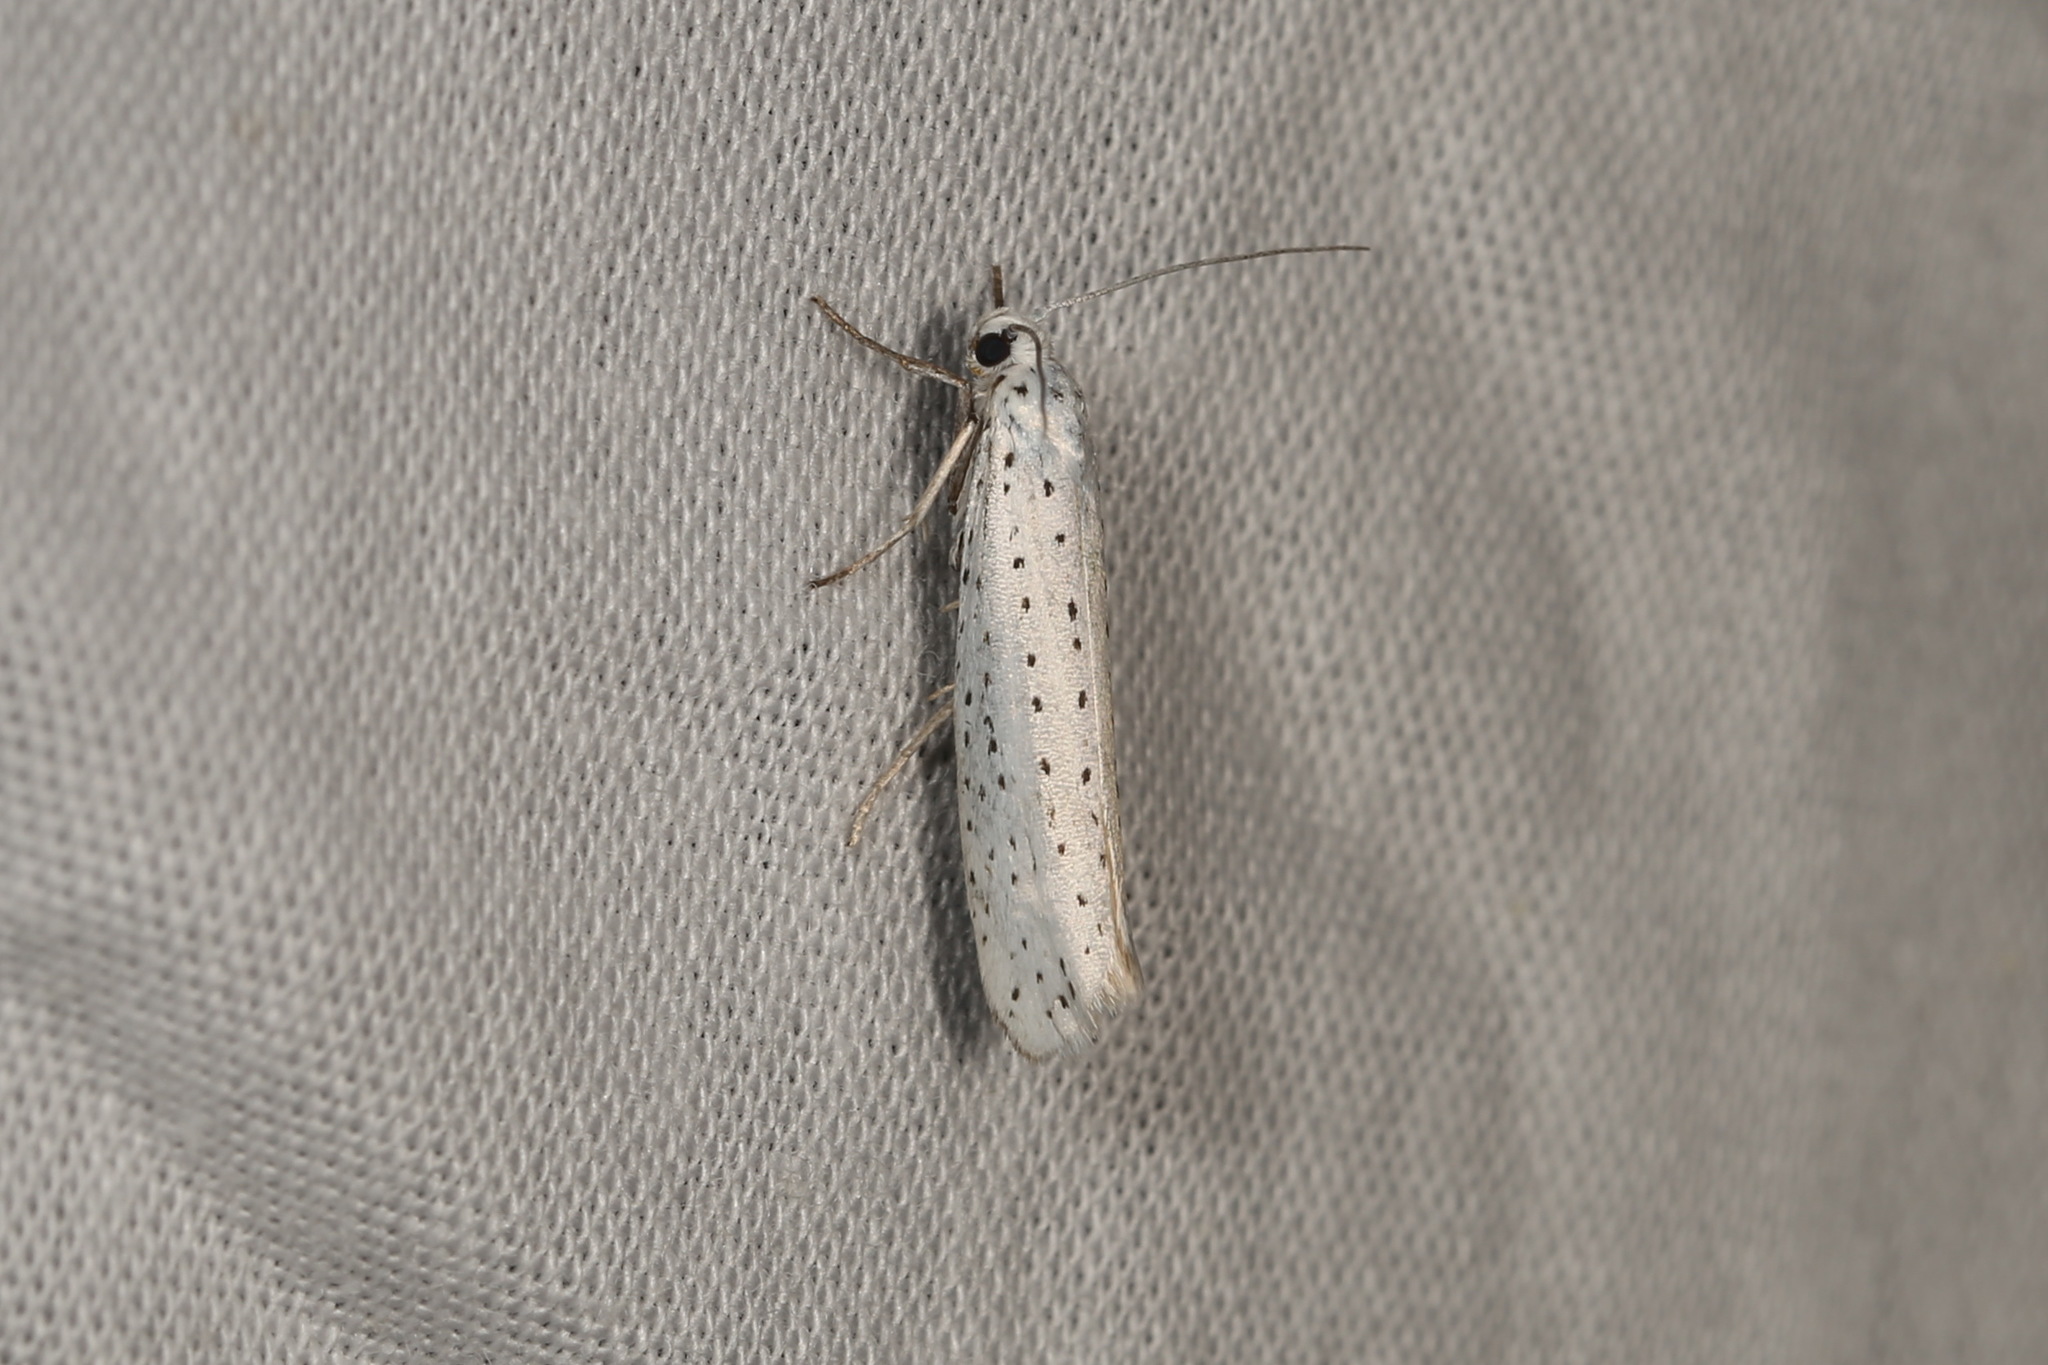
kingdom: Animalia
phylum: Arthropoda
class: Insecta
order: Lepidoptera
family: Yponomeutidae
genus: Yponomeuta
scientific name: Yponomeuta evonymella
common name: Bird-cherry ermine
